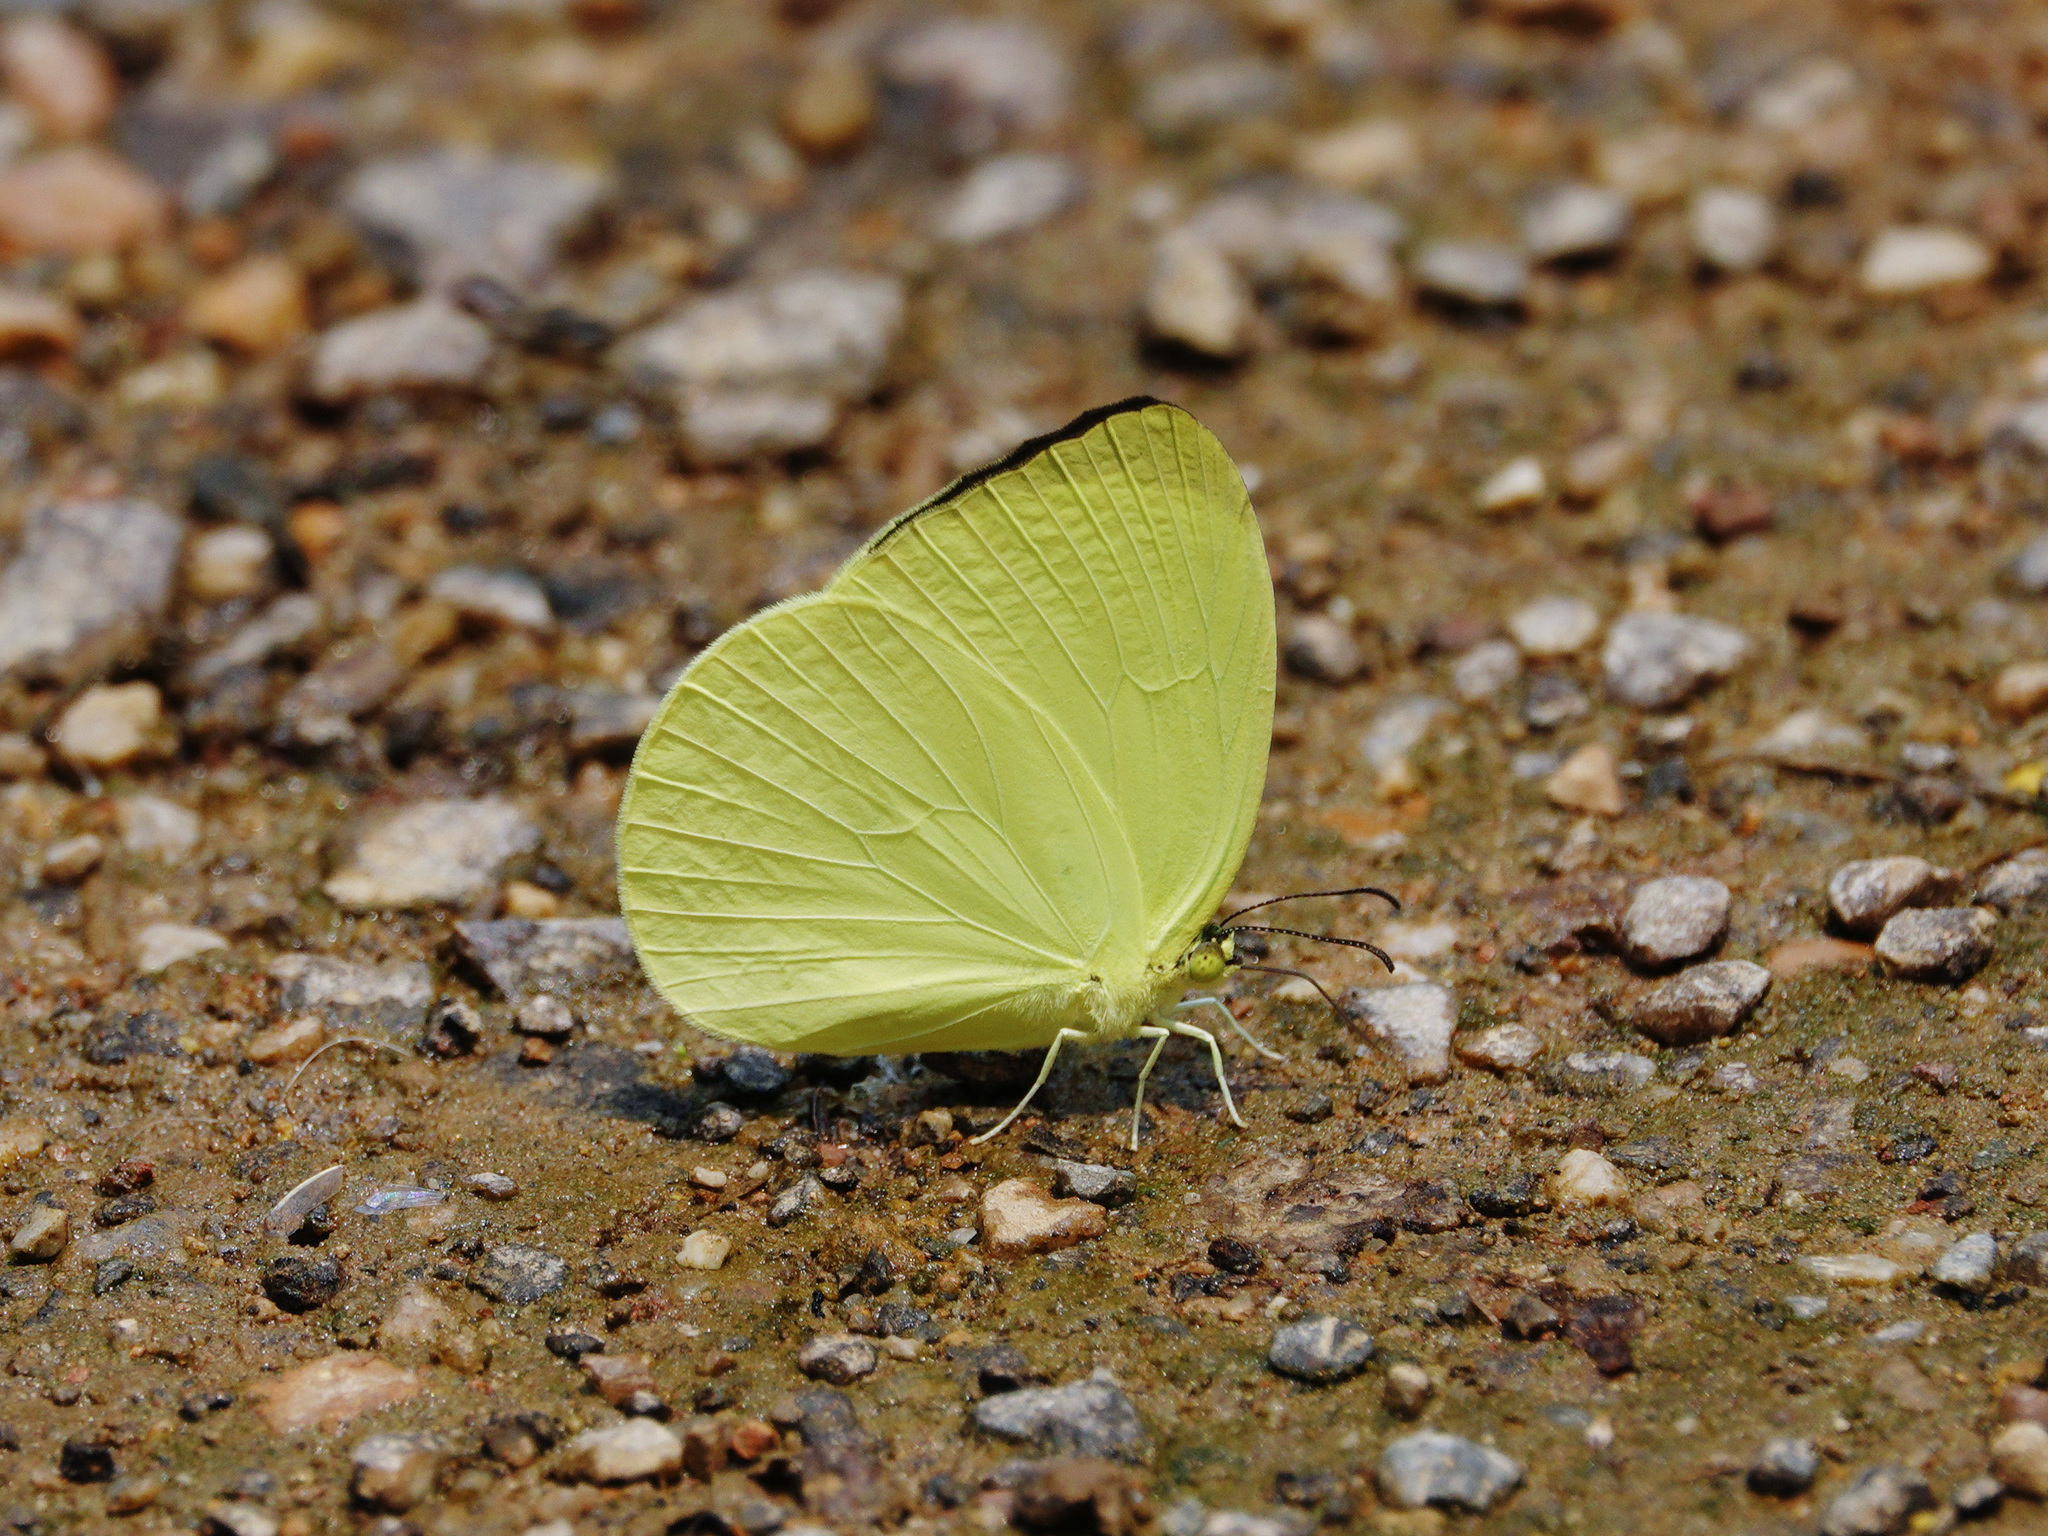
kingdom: Animalia
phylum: Arthropoda
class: Insecta
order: Lepidoptera
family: Pieridae
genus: Gandaca
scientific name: Gandaca harina
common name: Tree yellow
